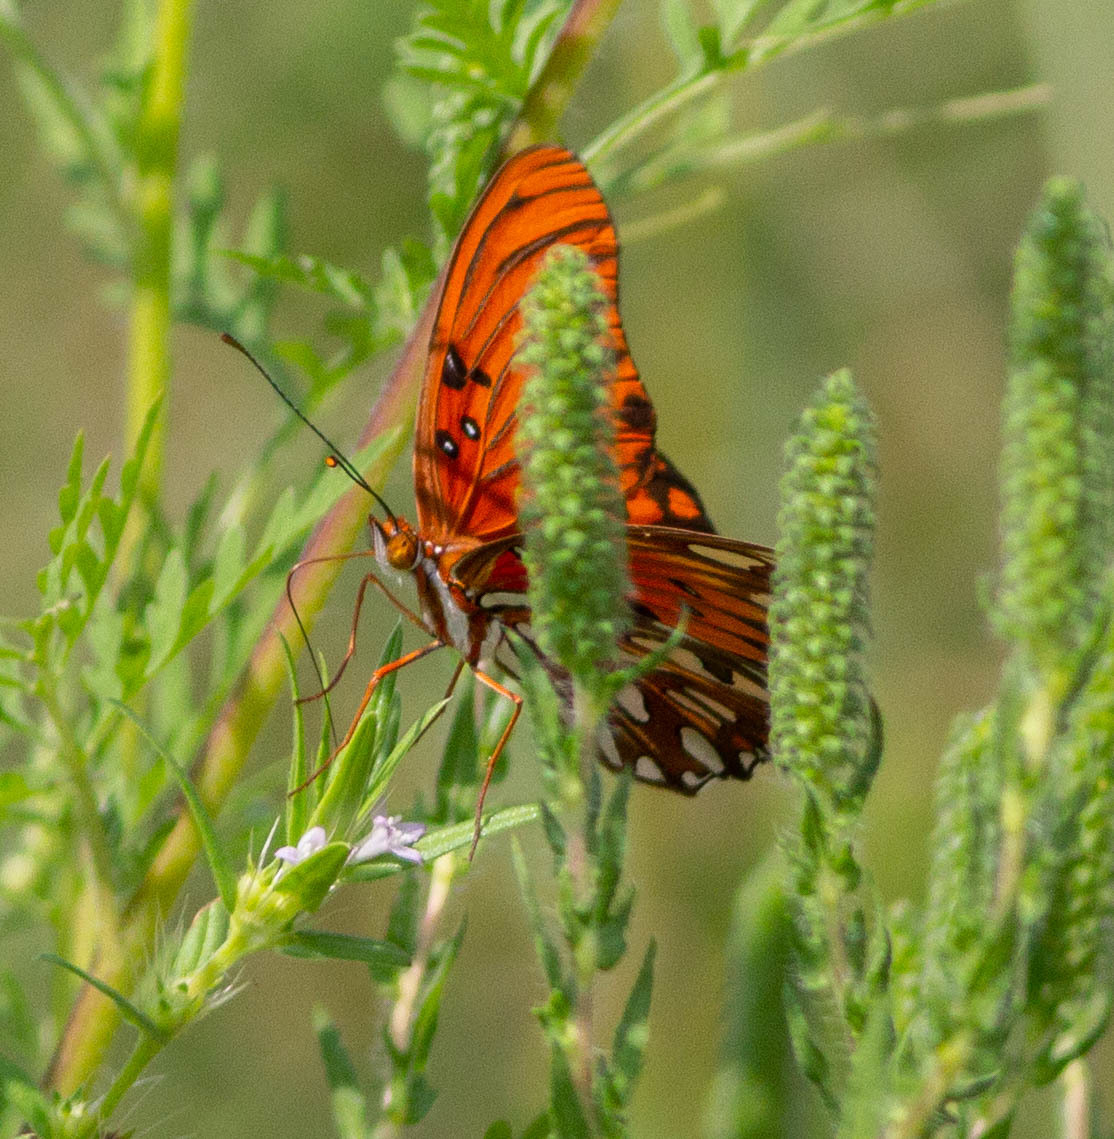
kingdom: Animalia
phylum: Arthropoda
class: Insecta
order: Lepidoptera
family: Nymphalidae
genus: Dione
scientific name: Dione vanillae
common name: Gulf fritillary
